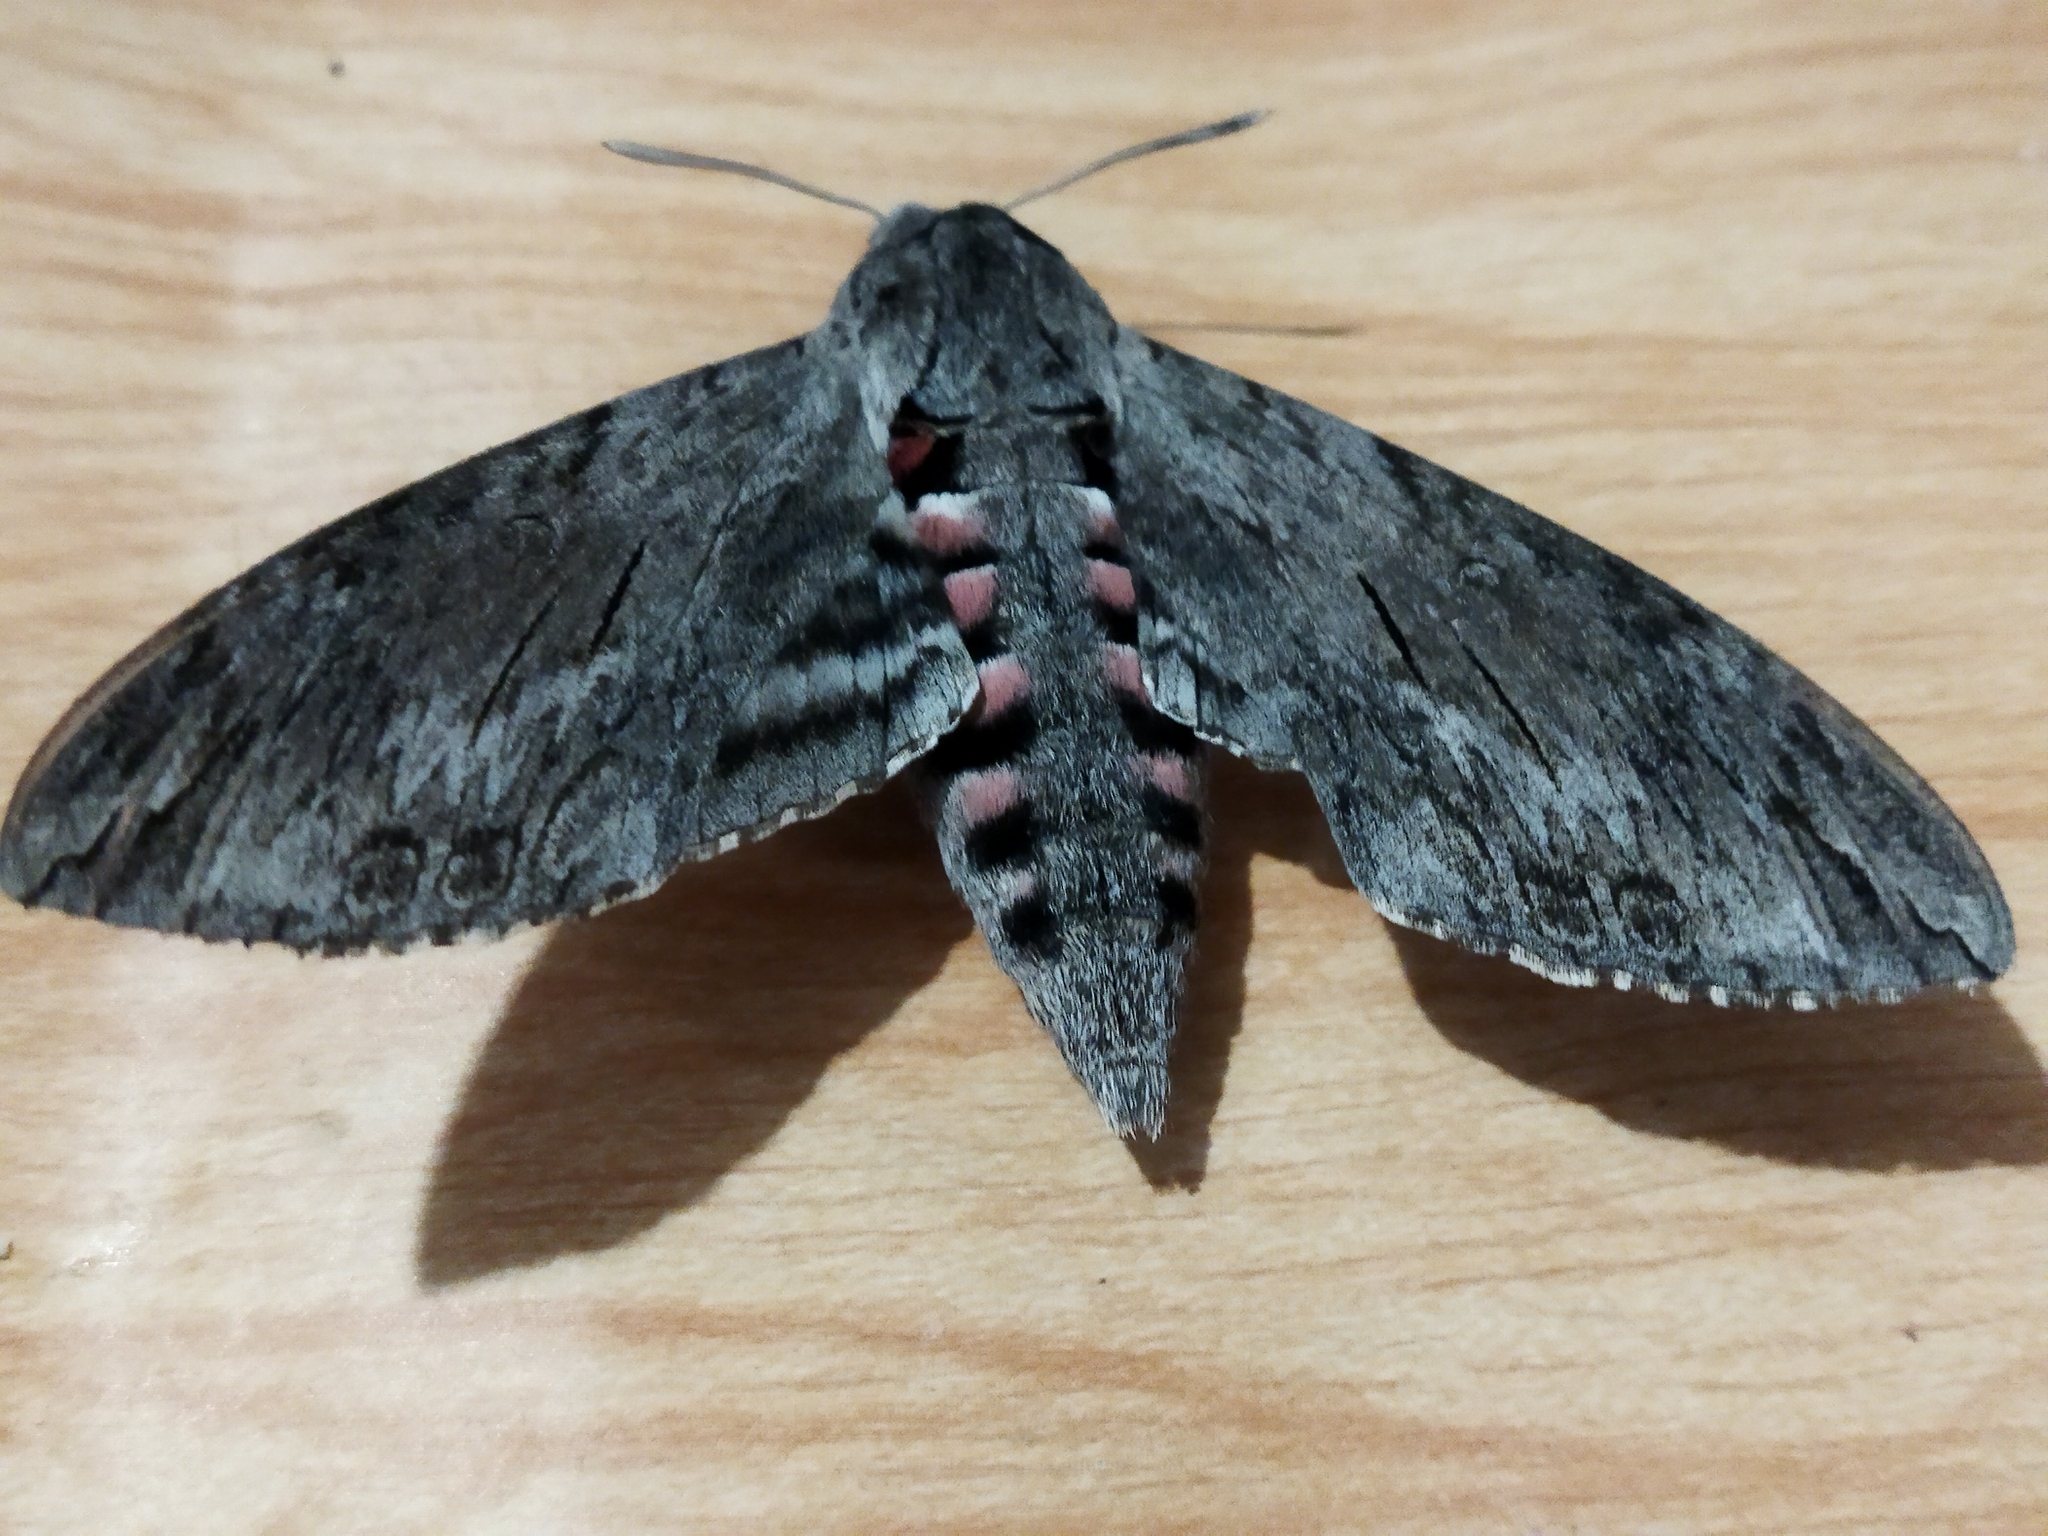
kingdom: Animalia
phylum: Arthropoda
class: Insecta
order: Lepidoptera
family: Sphingidae
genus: Agrius
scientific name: Agrius convolvuli
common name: Convolvulus hawkmoth
